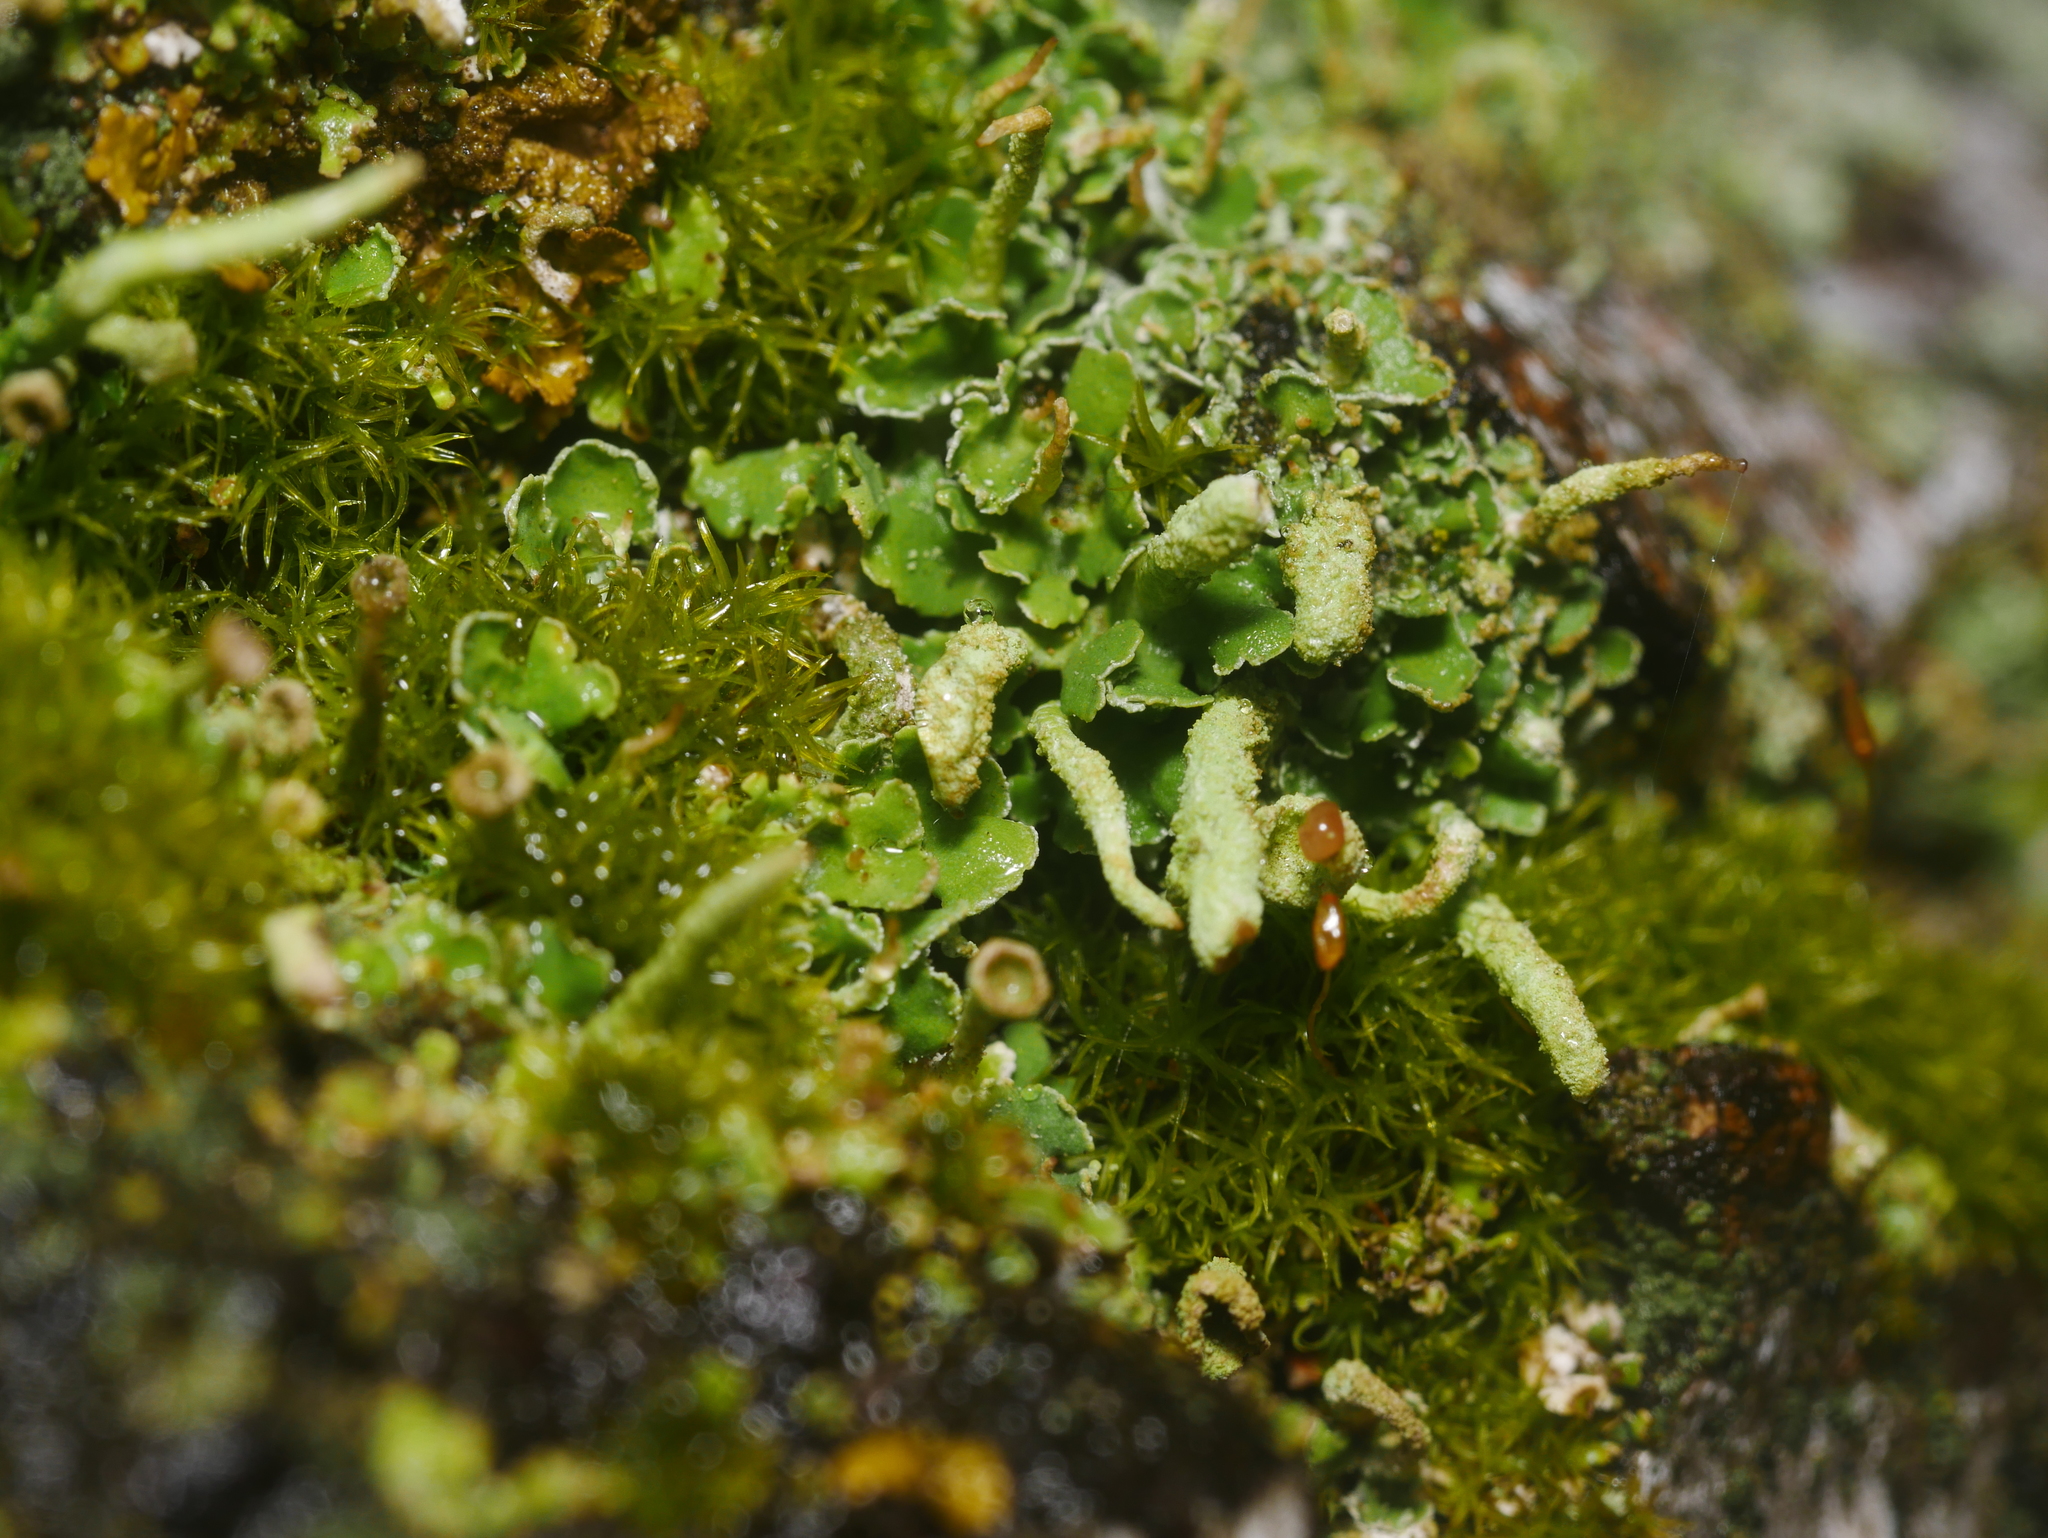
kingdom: Fungi
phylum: Ascomycota
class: Lecanoromycetes
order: Lecanorales
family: Cladoniaceae
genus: Cladonia
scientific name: Cladonia coniocraea
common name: Common powderhorn
